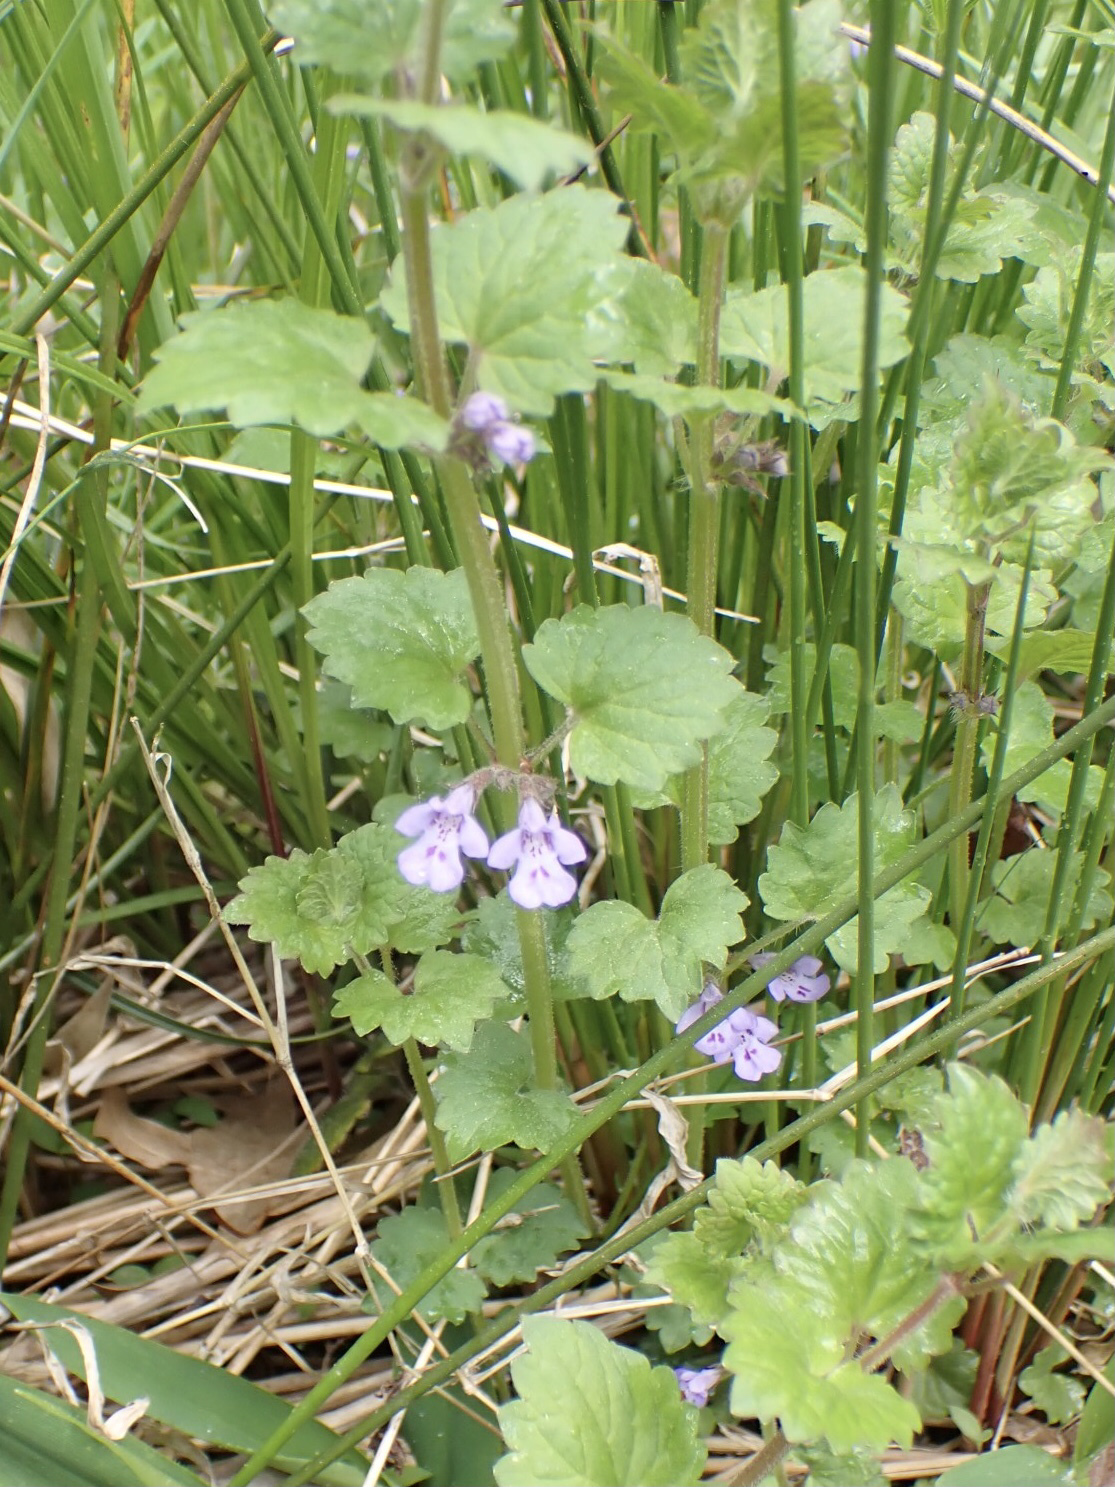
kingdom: Plantae
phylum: Tracheophyta
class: Magnoliopsida
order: Lamiales
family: Lamiaceae
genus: Glechoma
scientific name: Glechoma hederacea
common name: Ground ivy
